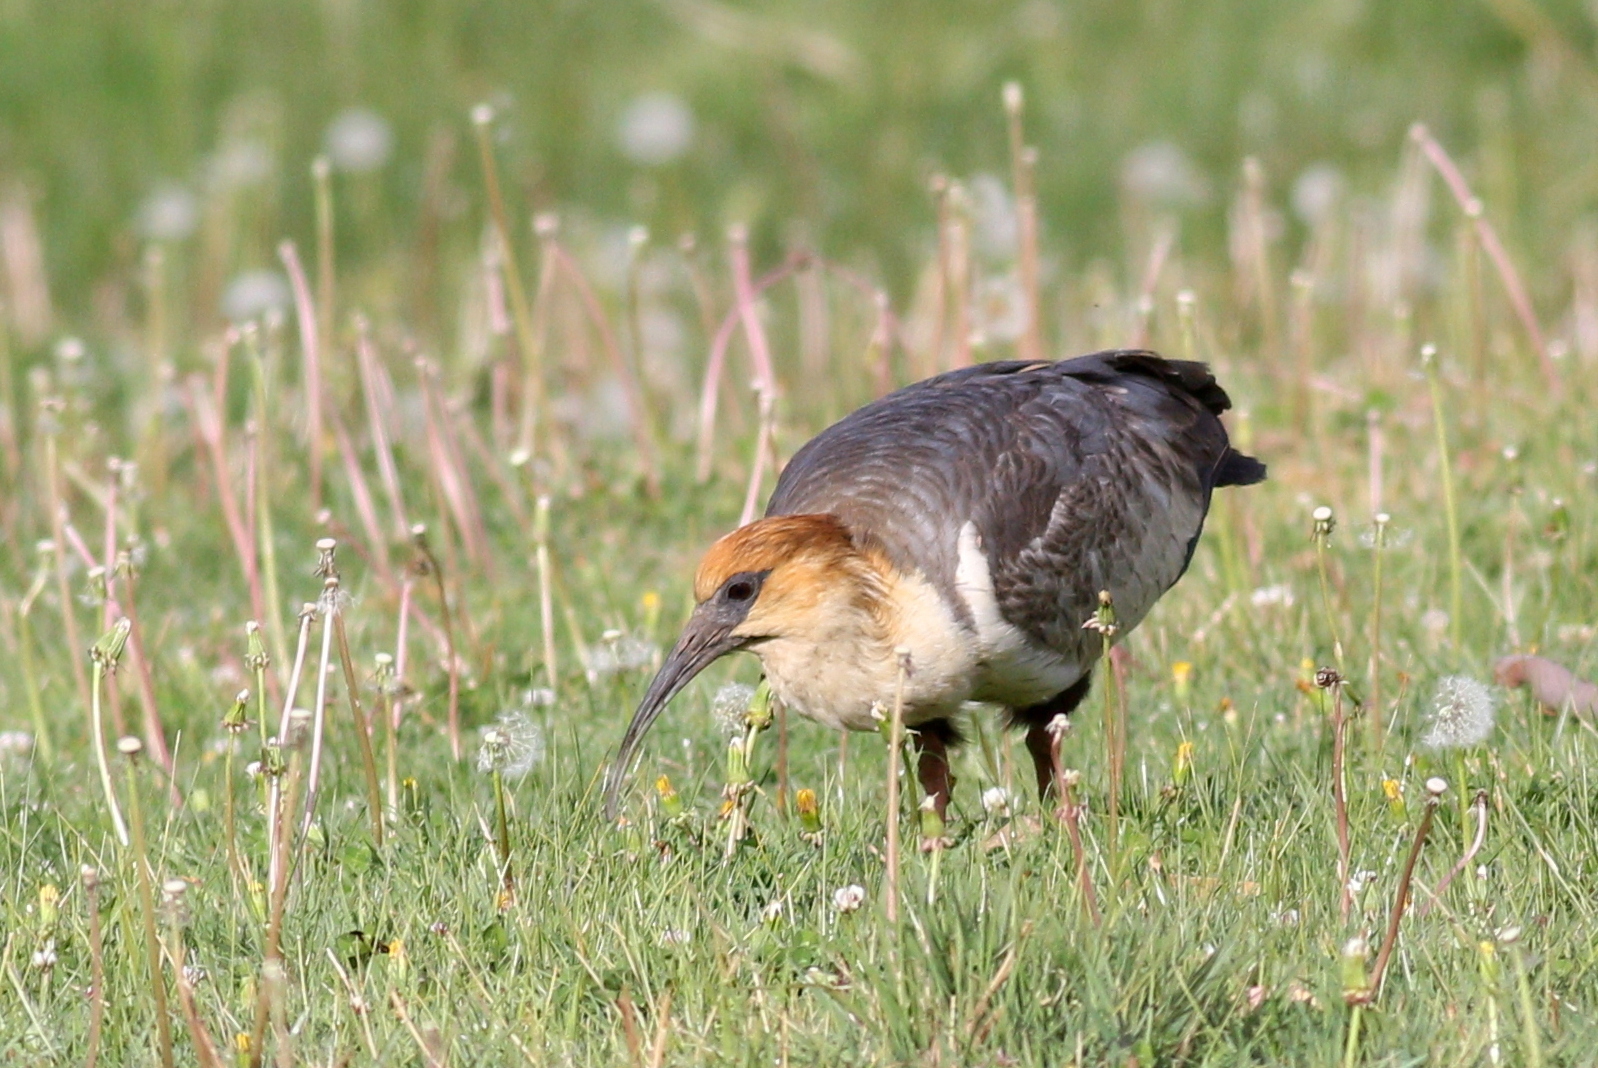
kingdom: Animalia
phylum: Chordata
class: Aves
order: Pelecaniformes
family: Threskiornithidae
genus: Theristicus
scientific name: Theristicus melanopis
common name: Black-faced ibis
